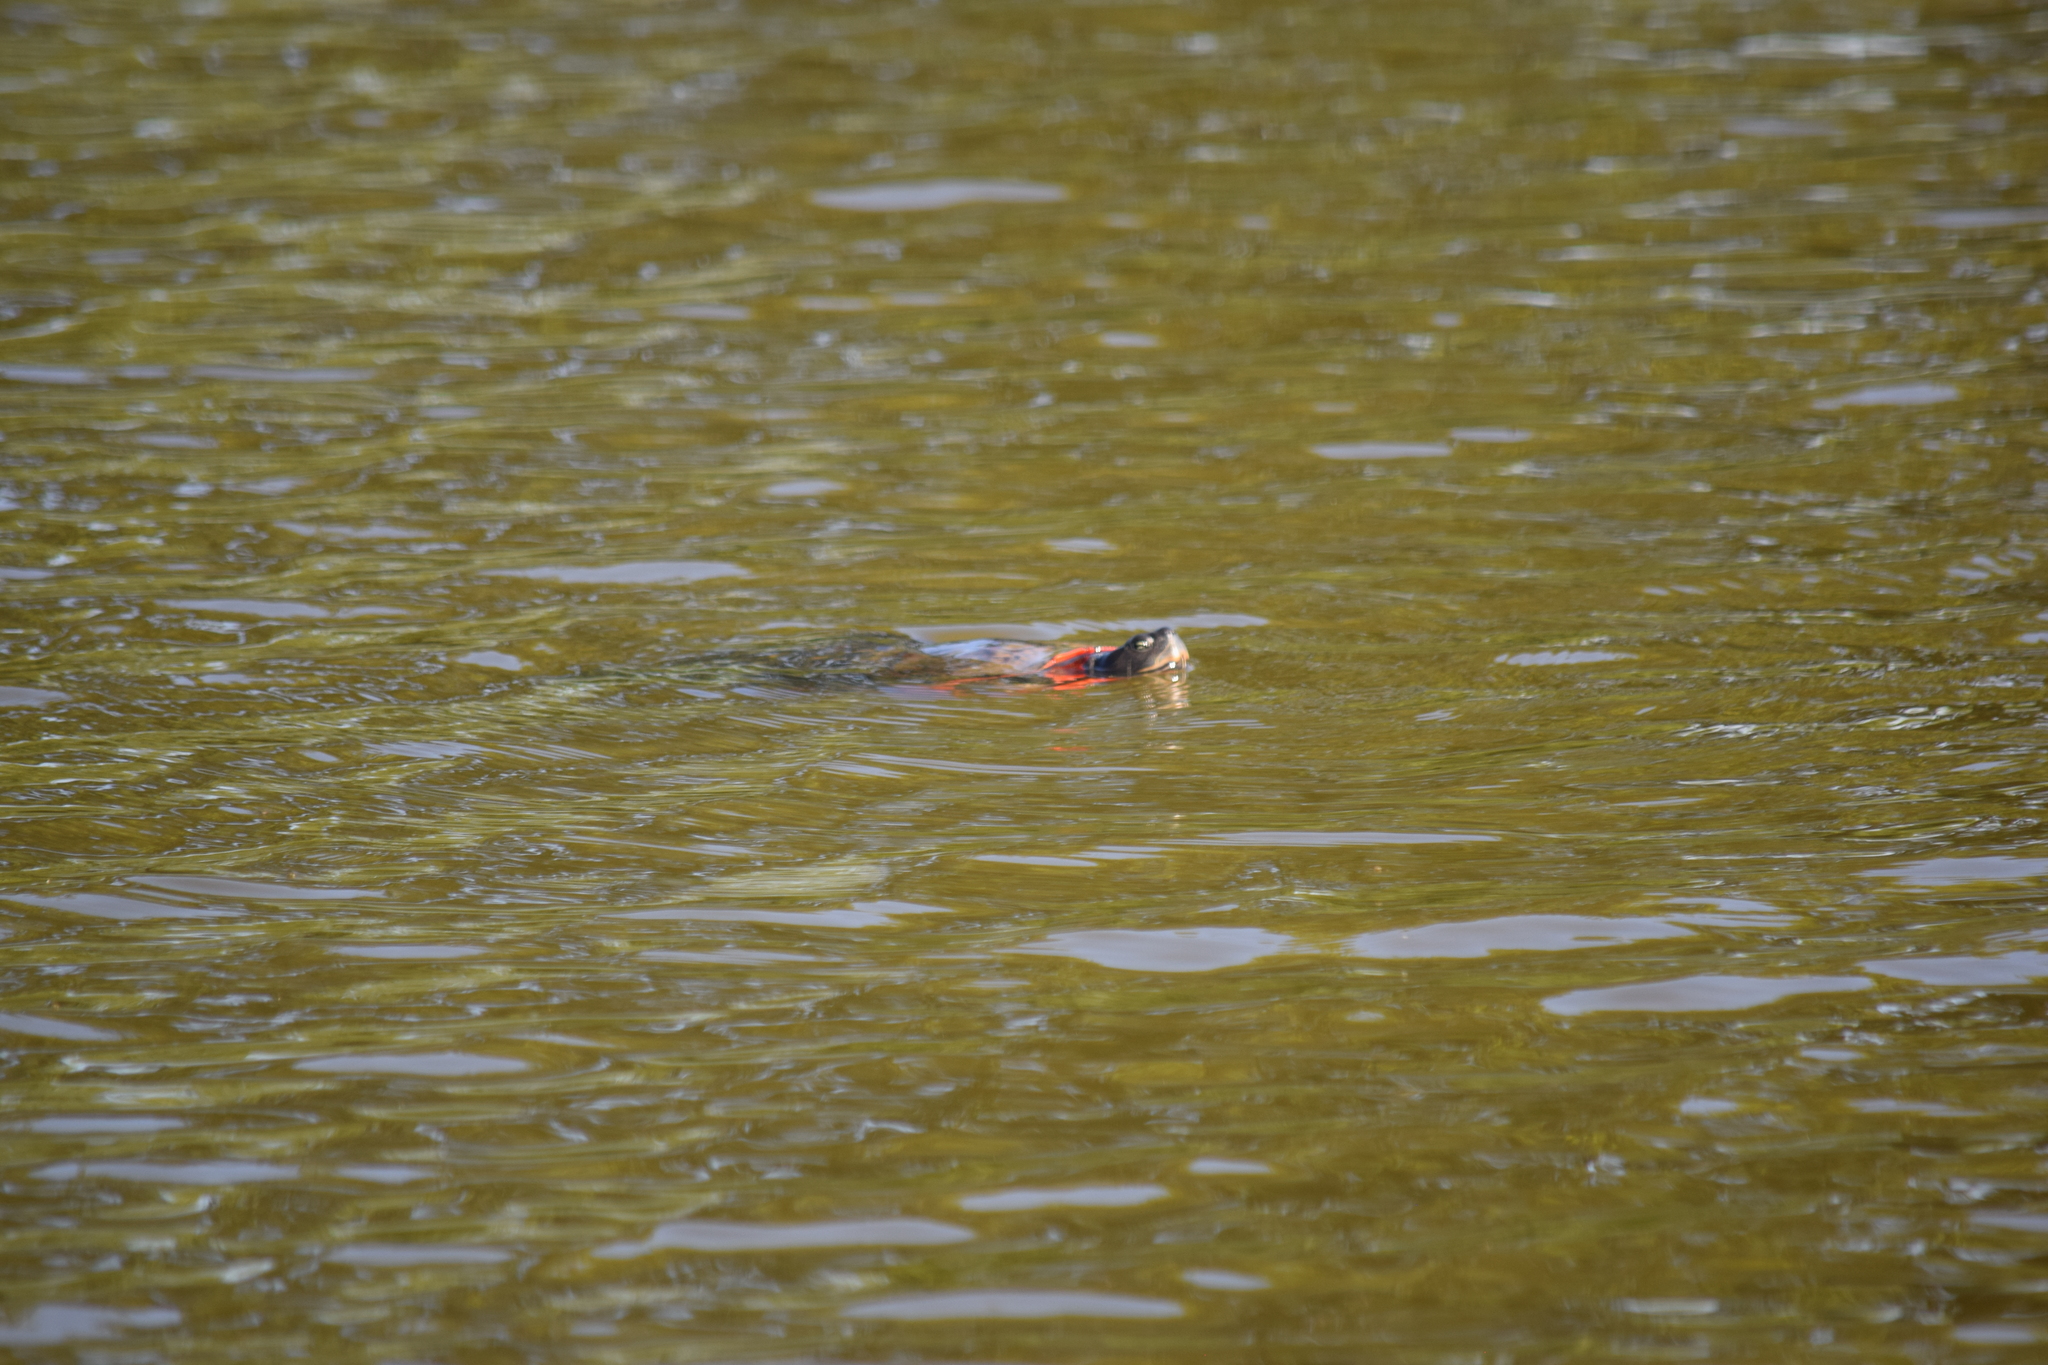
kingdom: Animalia
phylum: Chordata
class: Testudines
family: Emydidae
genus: Pseudemys
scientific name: Pseudemys rubriventris
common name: American red-bellied turtle
